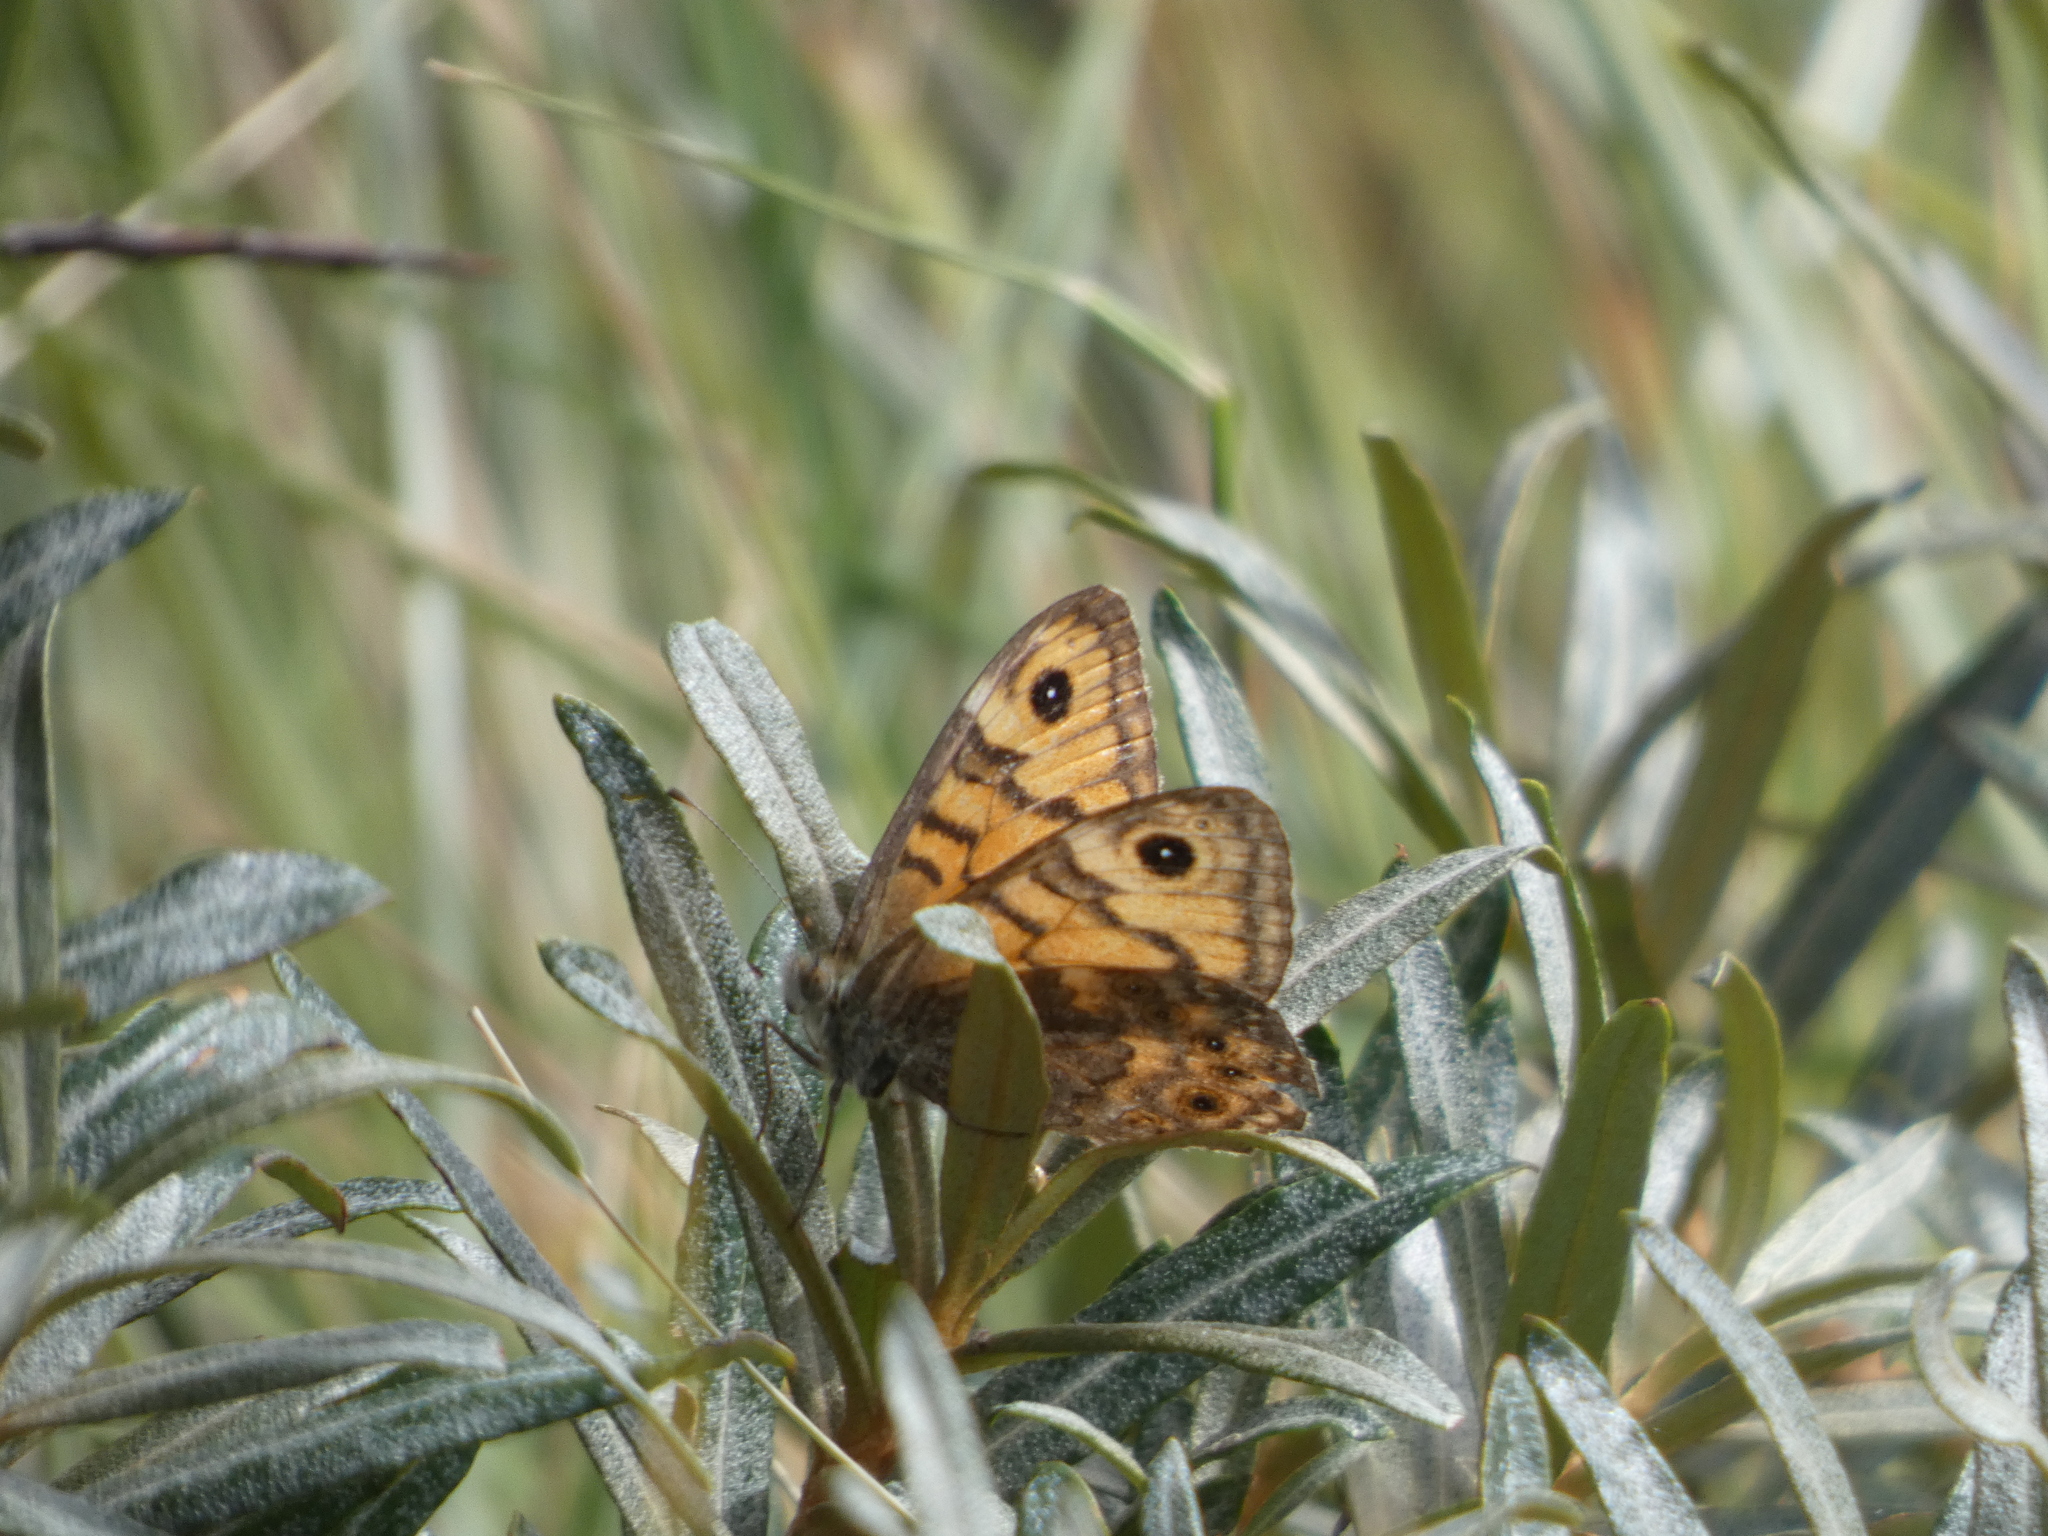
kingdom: Animalia
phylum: Arthropoda
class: Insecta
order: Lepidoptera
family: Nymphalidae
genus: Pararge
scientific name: Pararge Lasiommata megera
